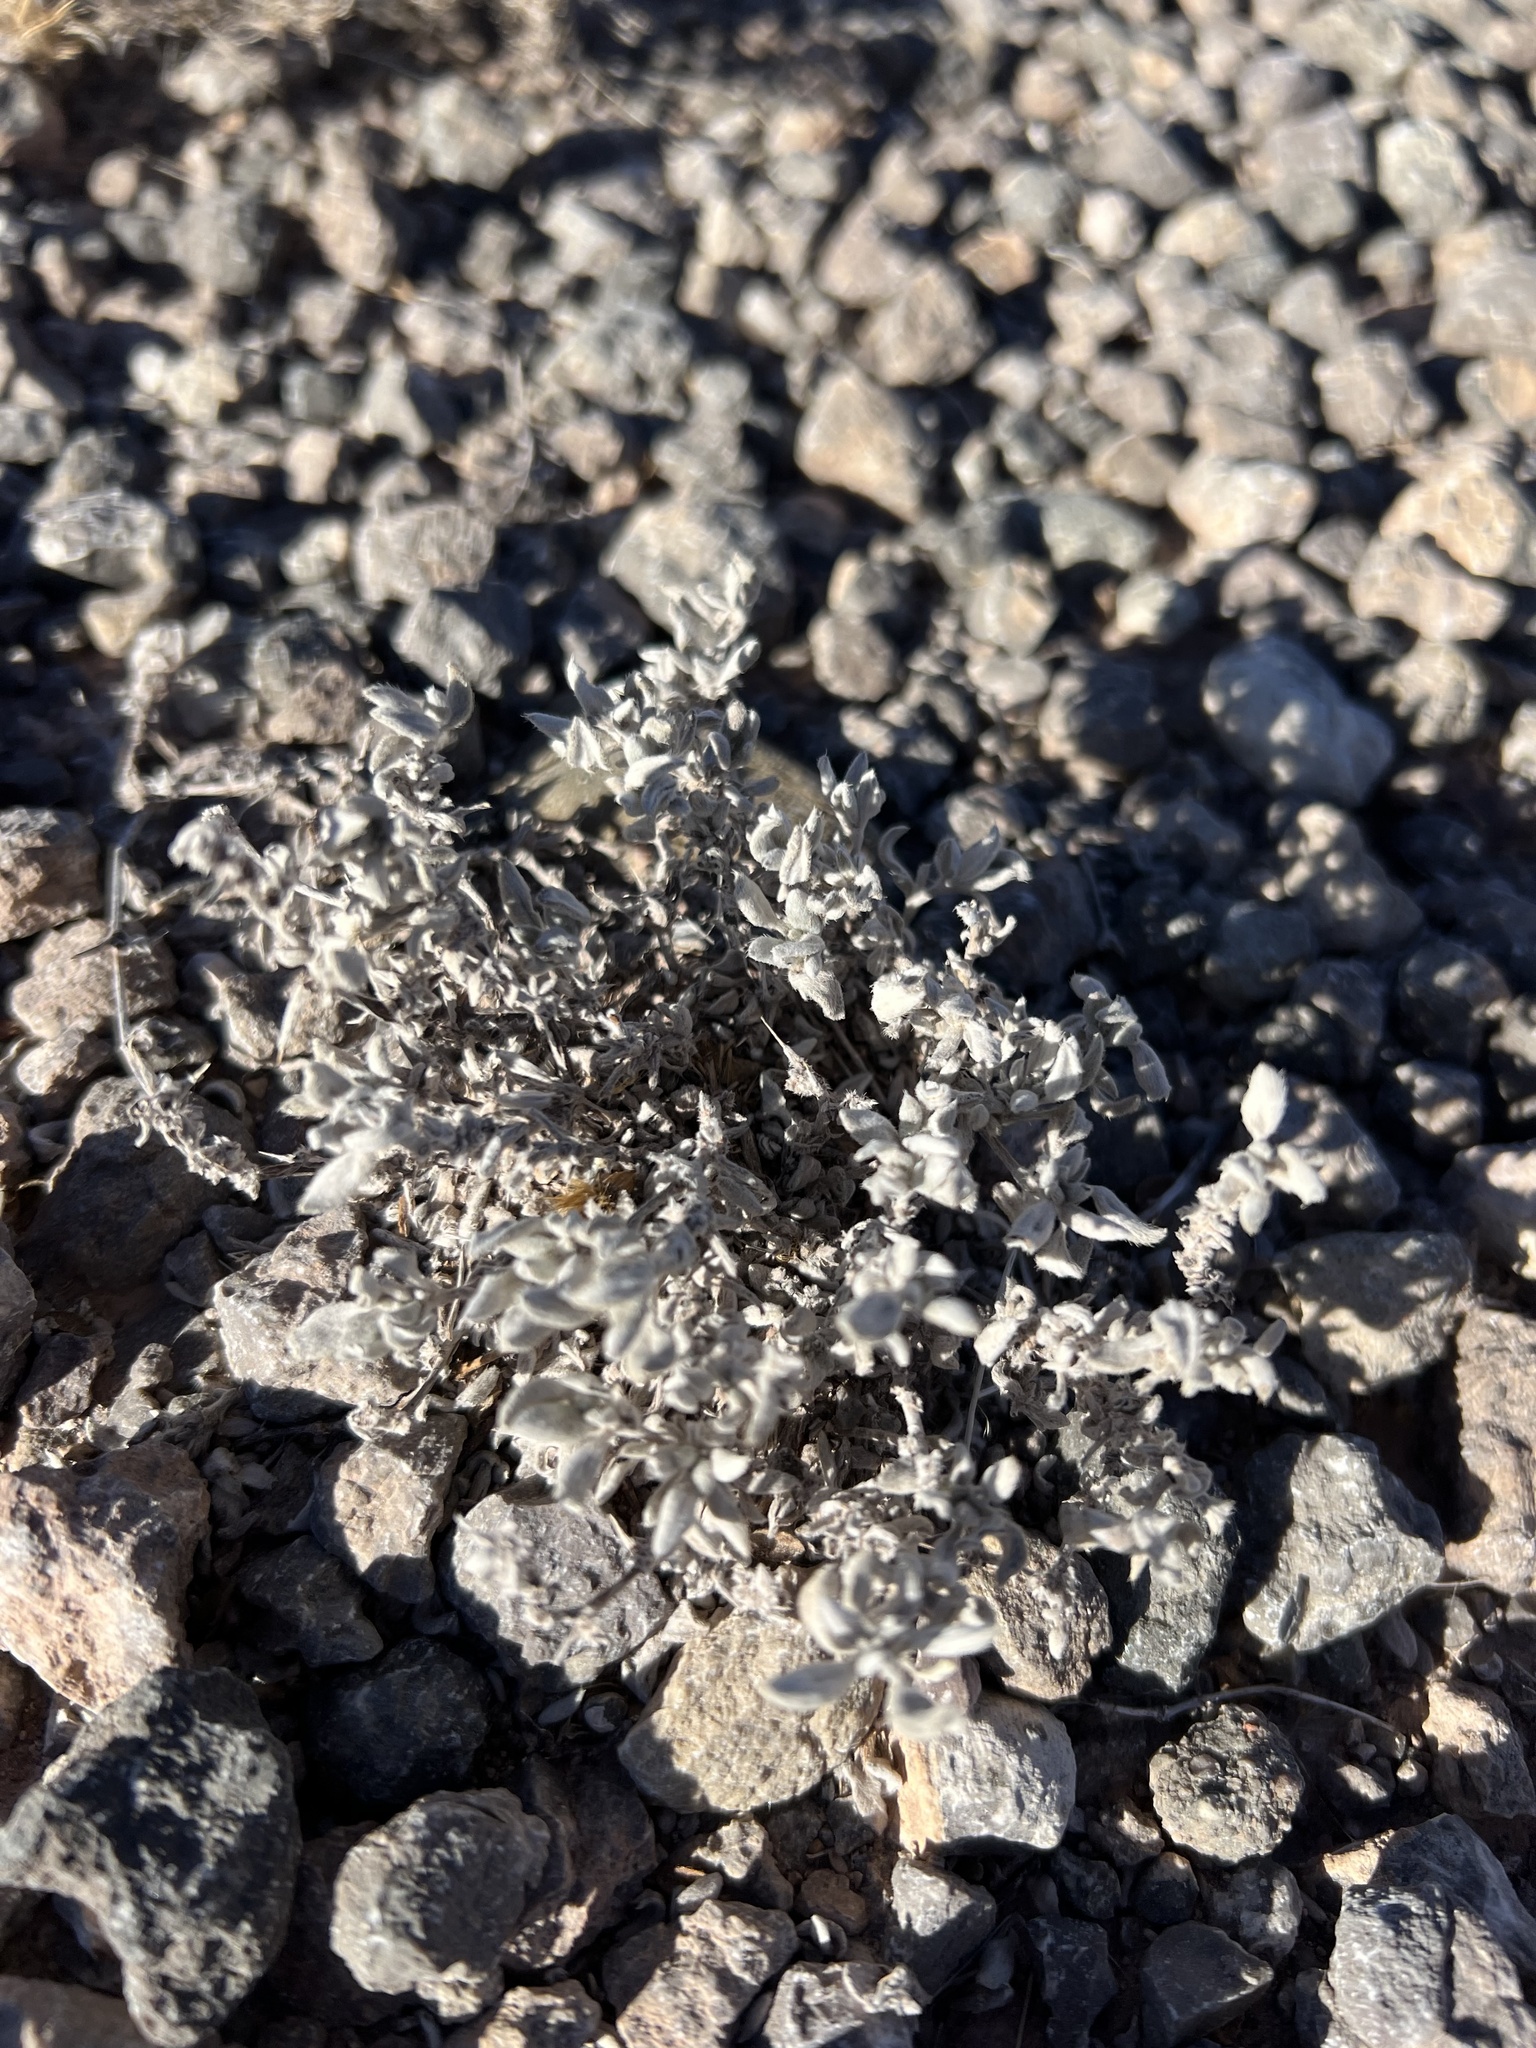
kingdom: Plantae
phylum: Tracheophyta
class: Magnoliopsida
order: Boraginales
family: Ehretiaceae
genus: Tiquilia
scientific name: Tiquilia canescens
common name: Hairy tiquilia
